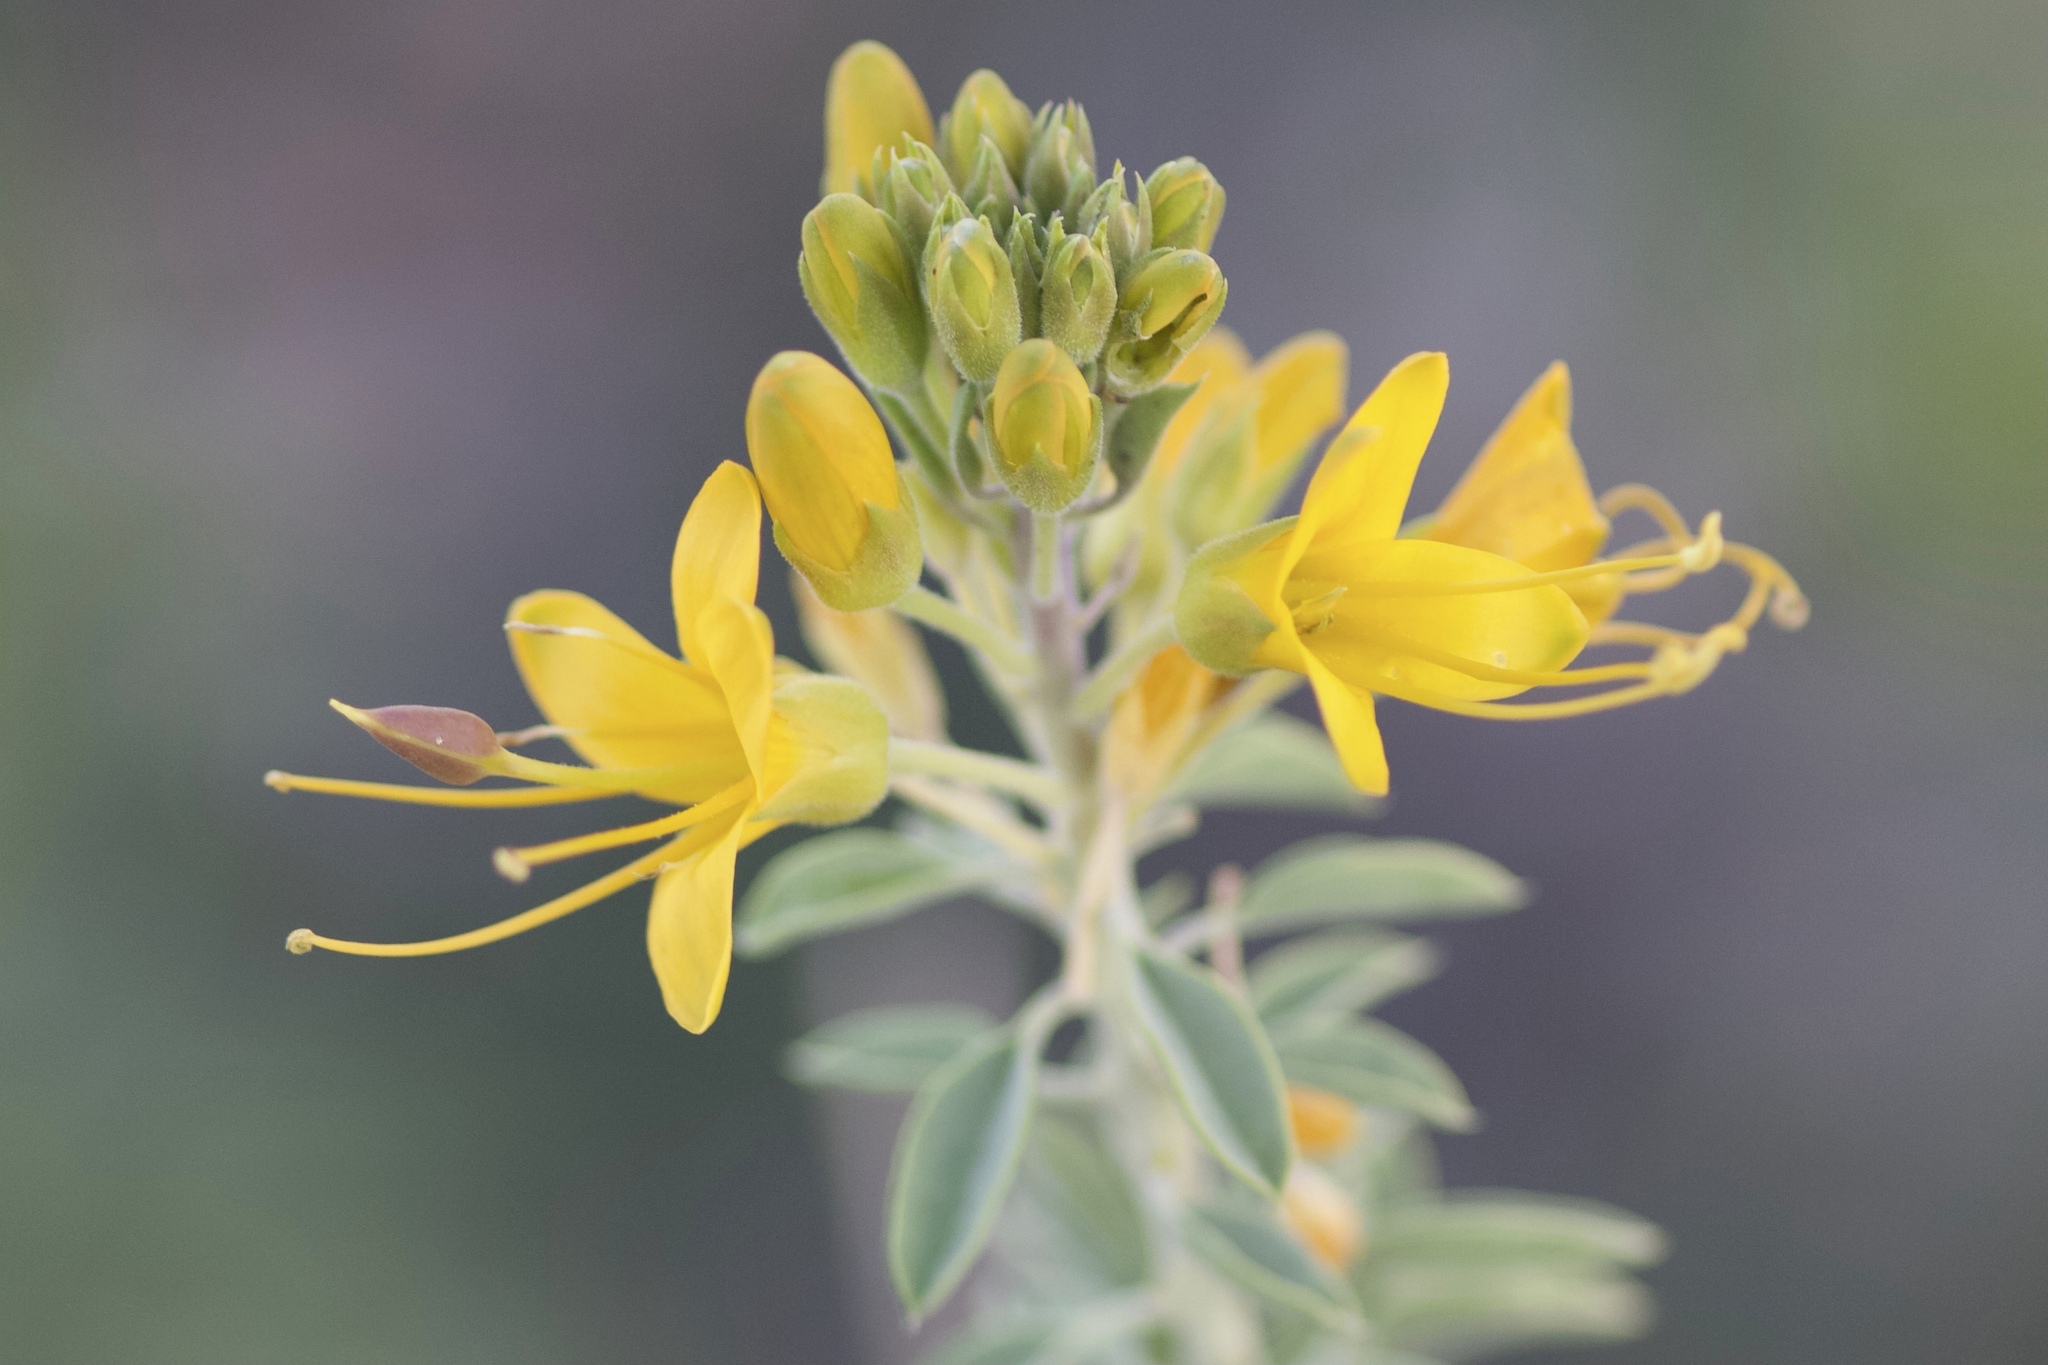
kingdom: Plantae
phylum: Tracheophyta
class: Magnoliopsida
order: Brassicales
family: Cleomaceae
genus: Cleomella
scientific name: Cleomella arborea
